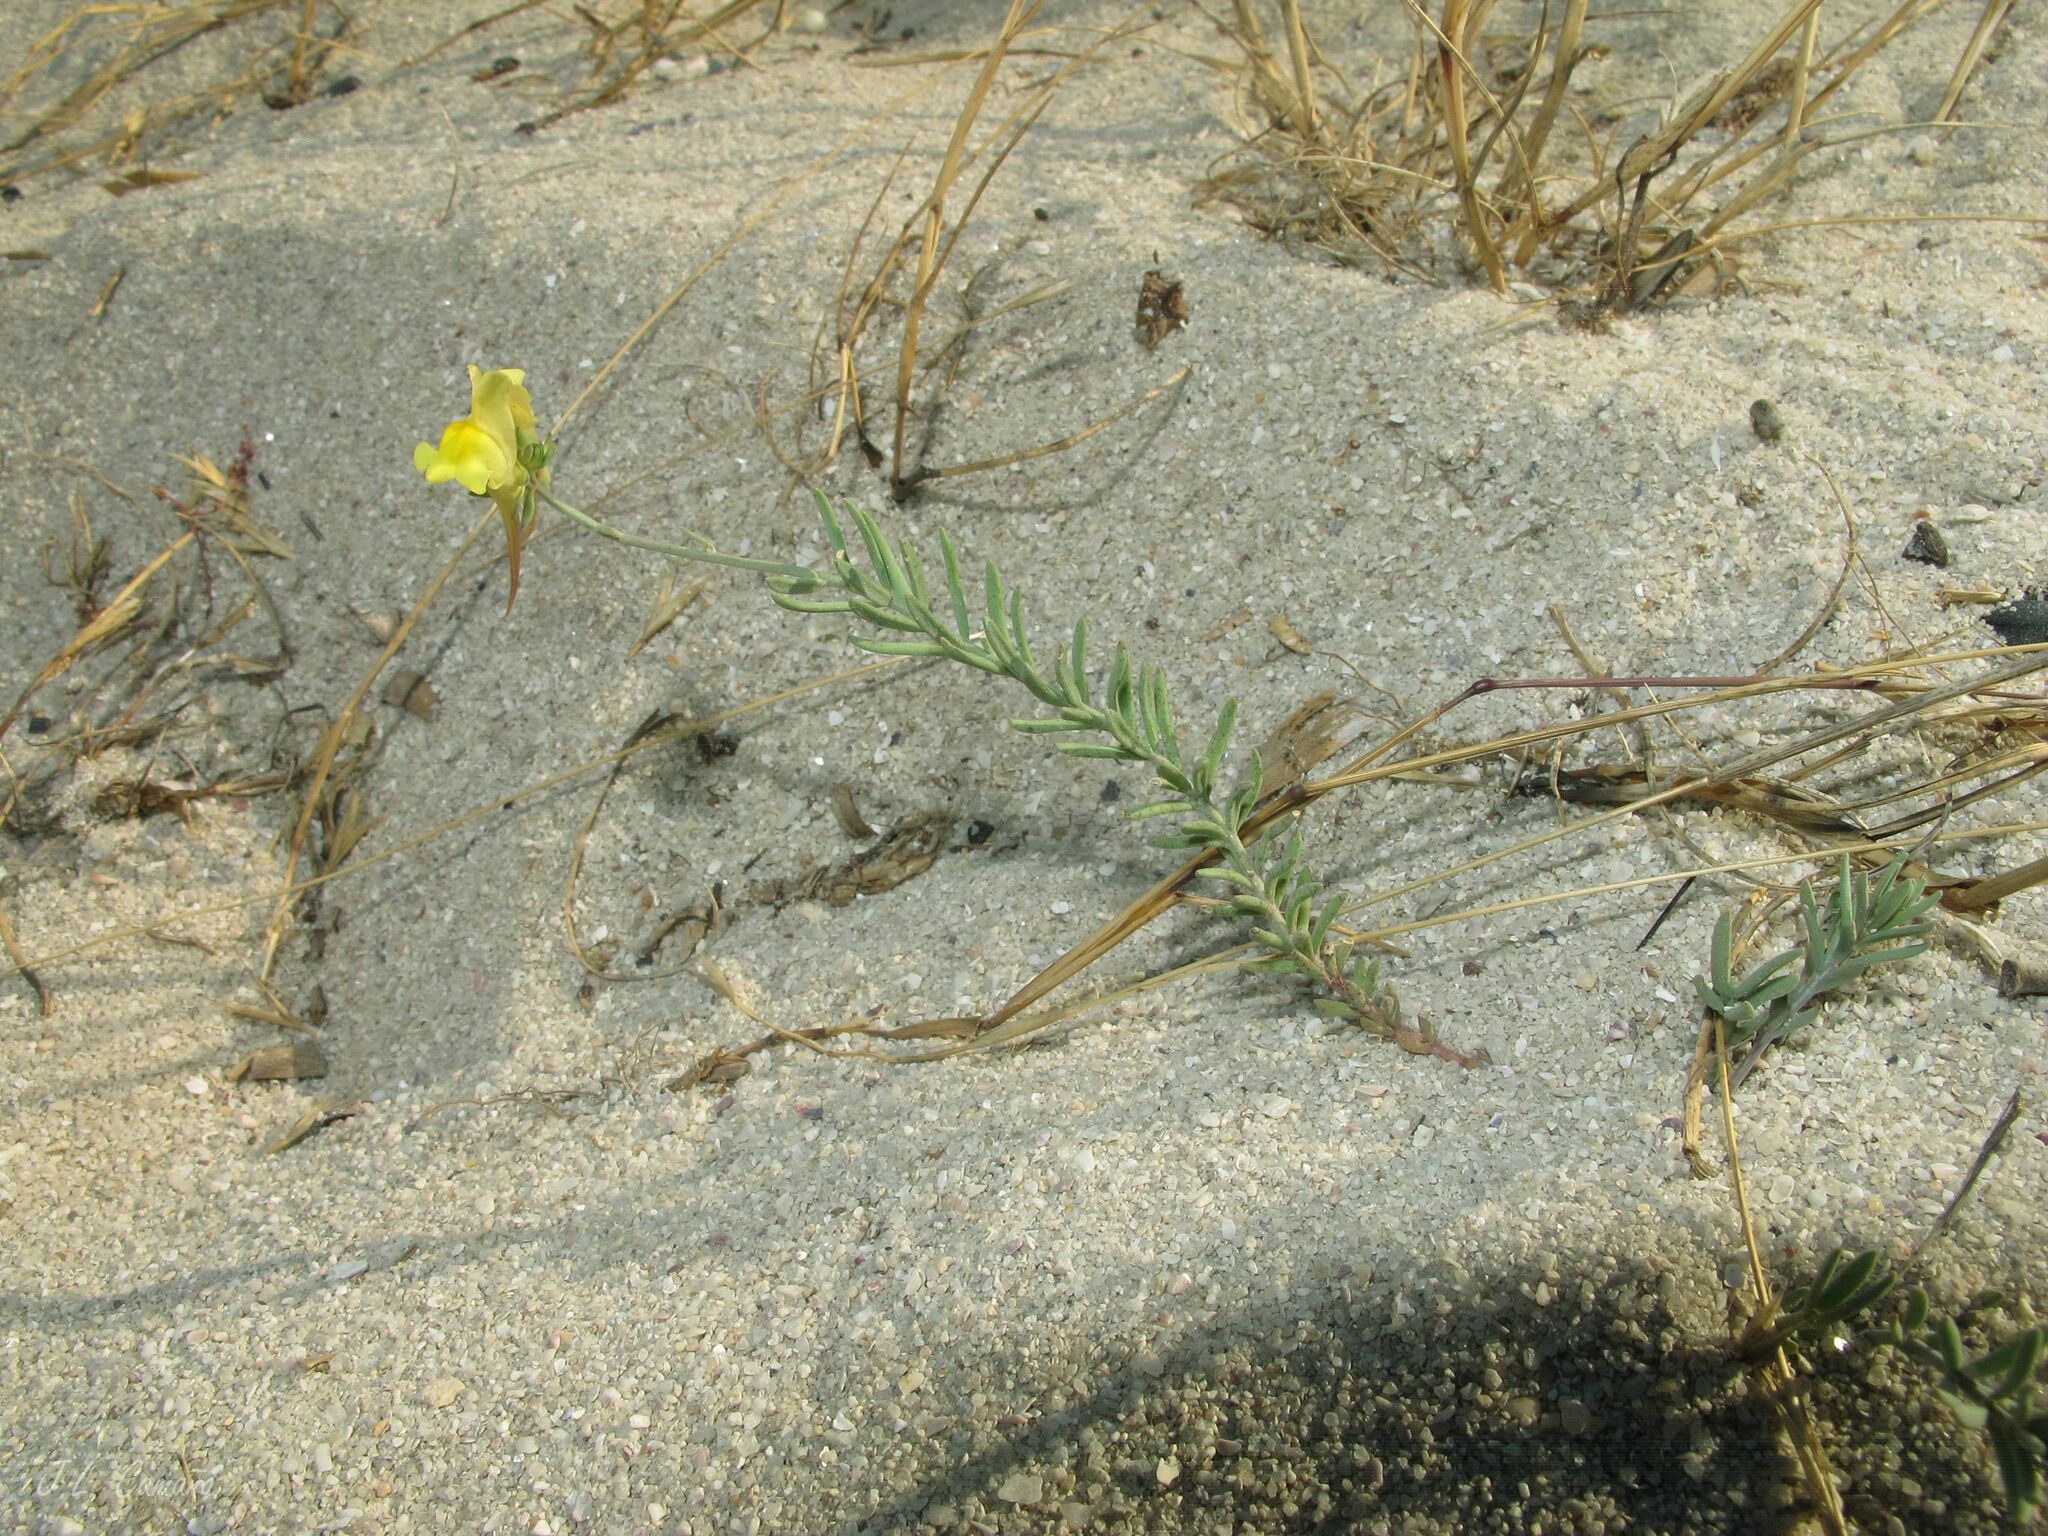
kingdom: Plantae
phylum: Tracheophyta
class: Magnoliopsida
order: Lamiales
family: Plantaginaceae
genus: Linaria
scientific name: Linaria polygalifolia
